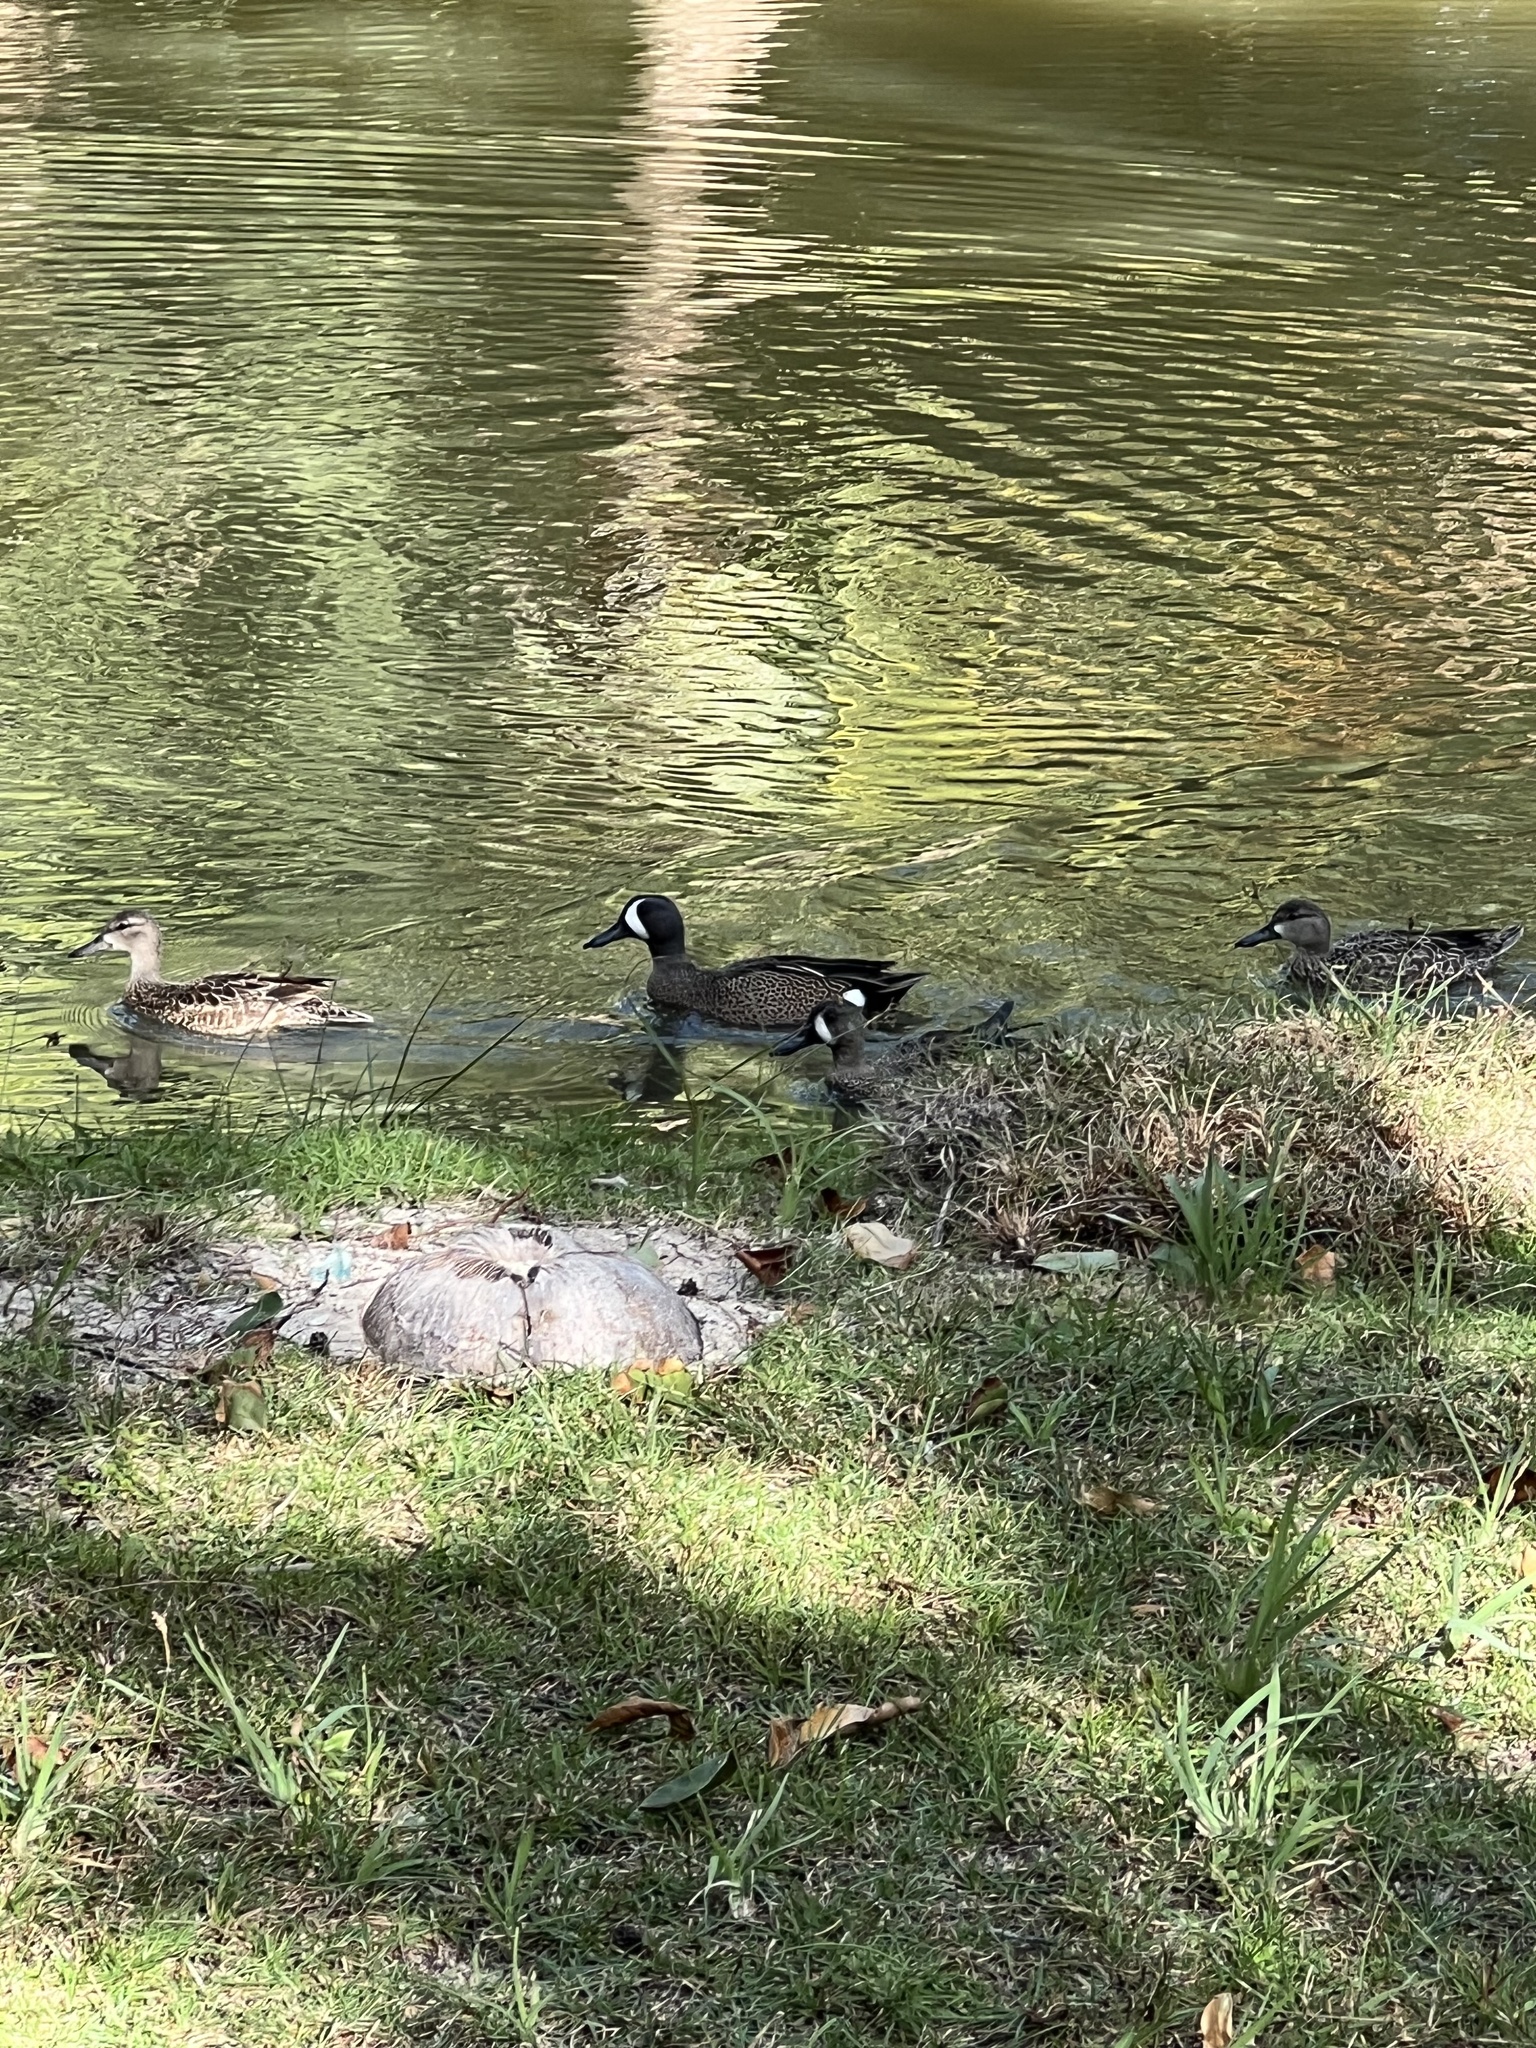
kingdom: Animalia
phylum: Chordata
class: Aves
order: Anseriformes
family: Anatidae
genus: Spatula
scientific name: Spatula discors
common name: Blue-winged teal
